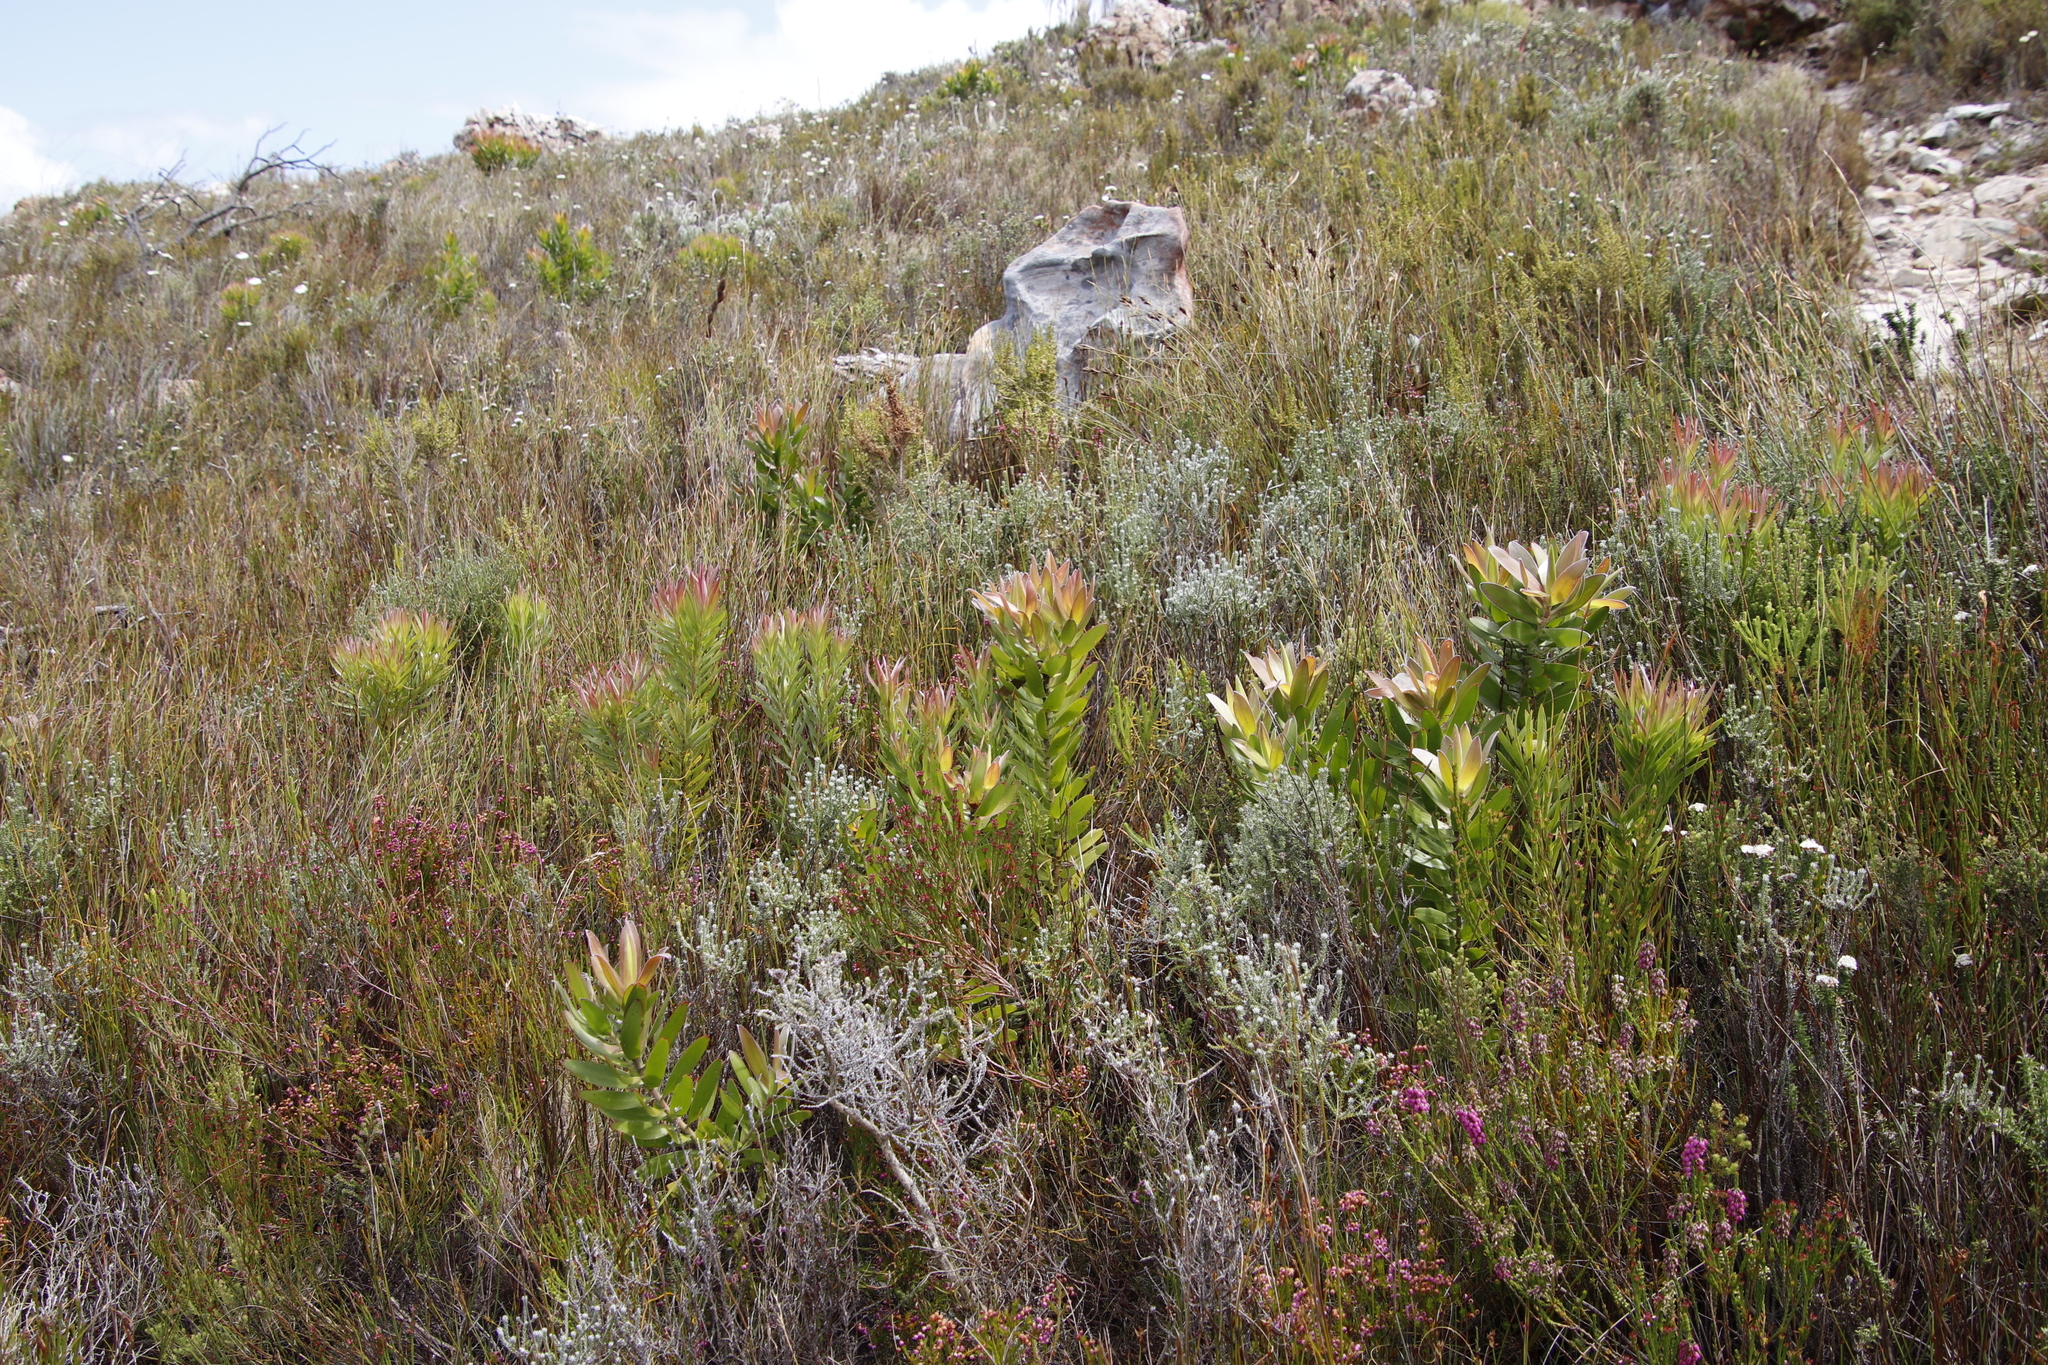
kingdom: Plantae
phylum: Tracheophyta
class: Magnoliopsida
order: Proteales
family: Proteaceae
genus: Leucadendron
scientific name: Leucadendron laureolum
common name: Golden sunshinebush
